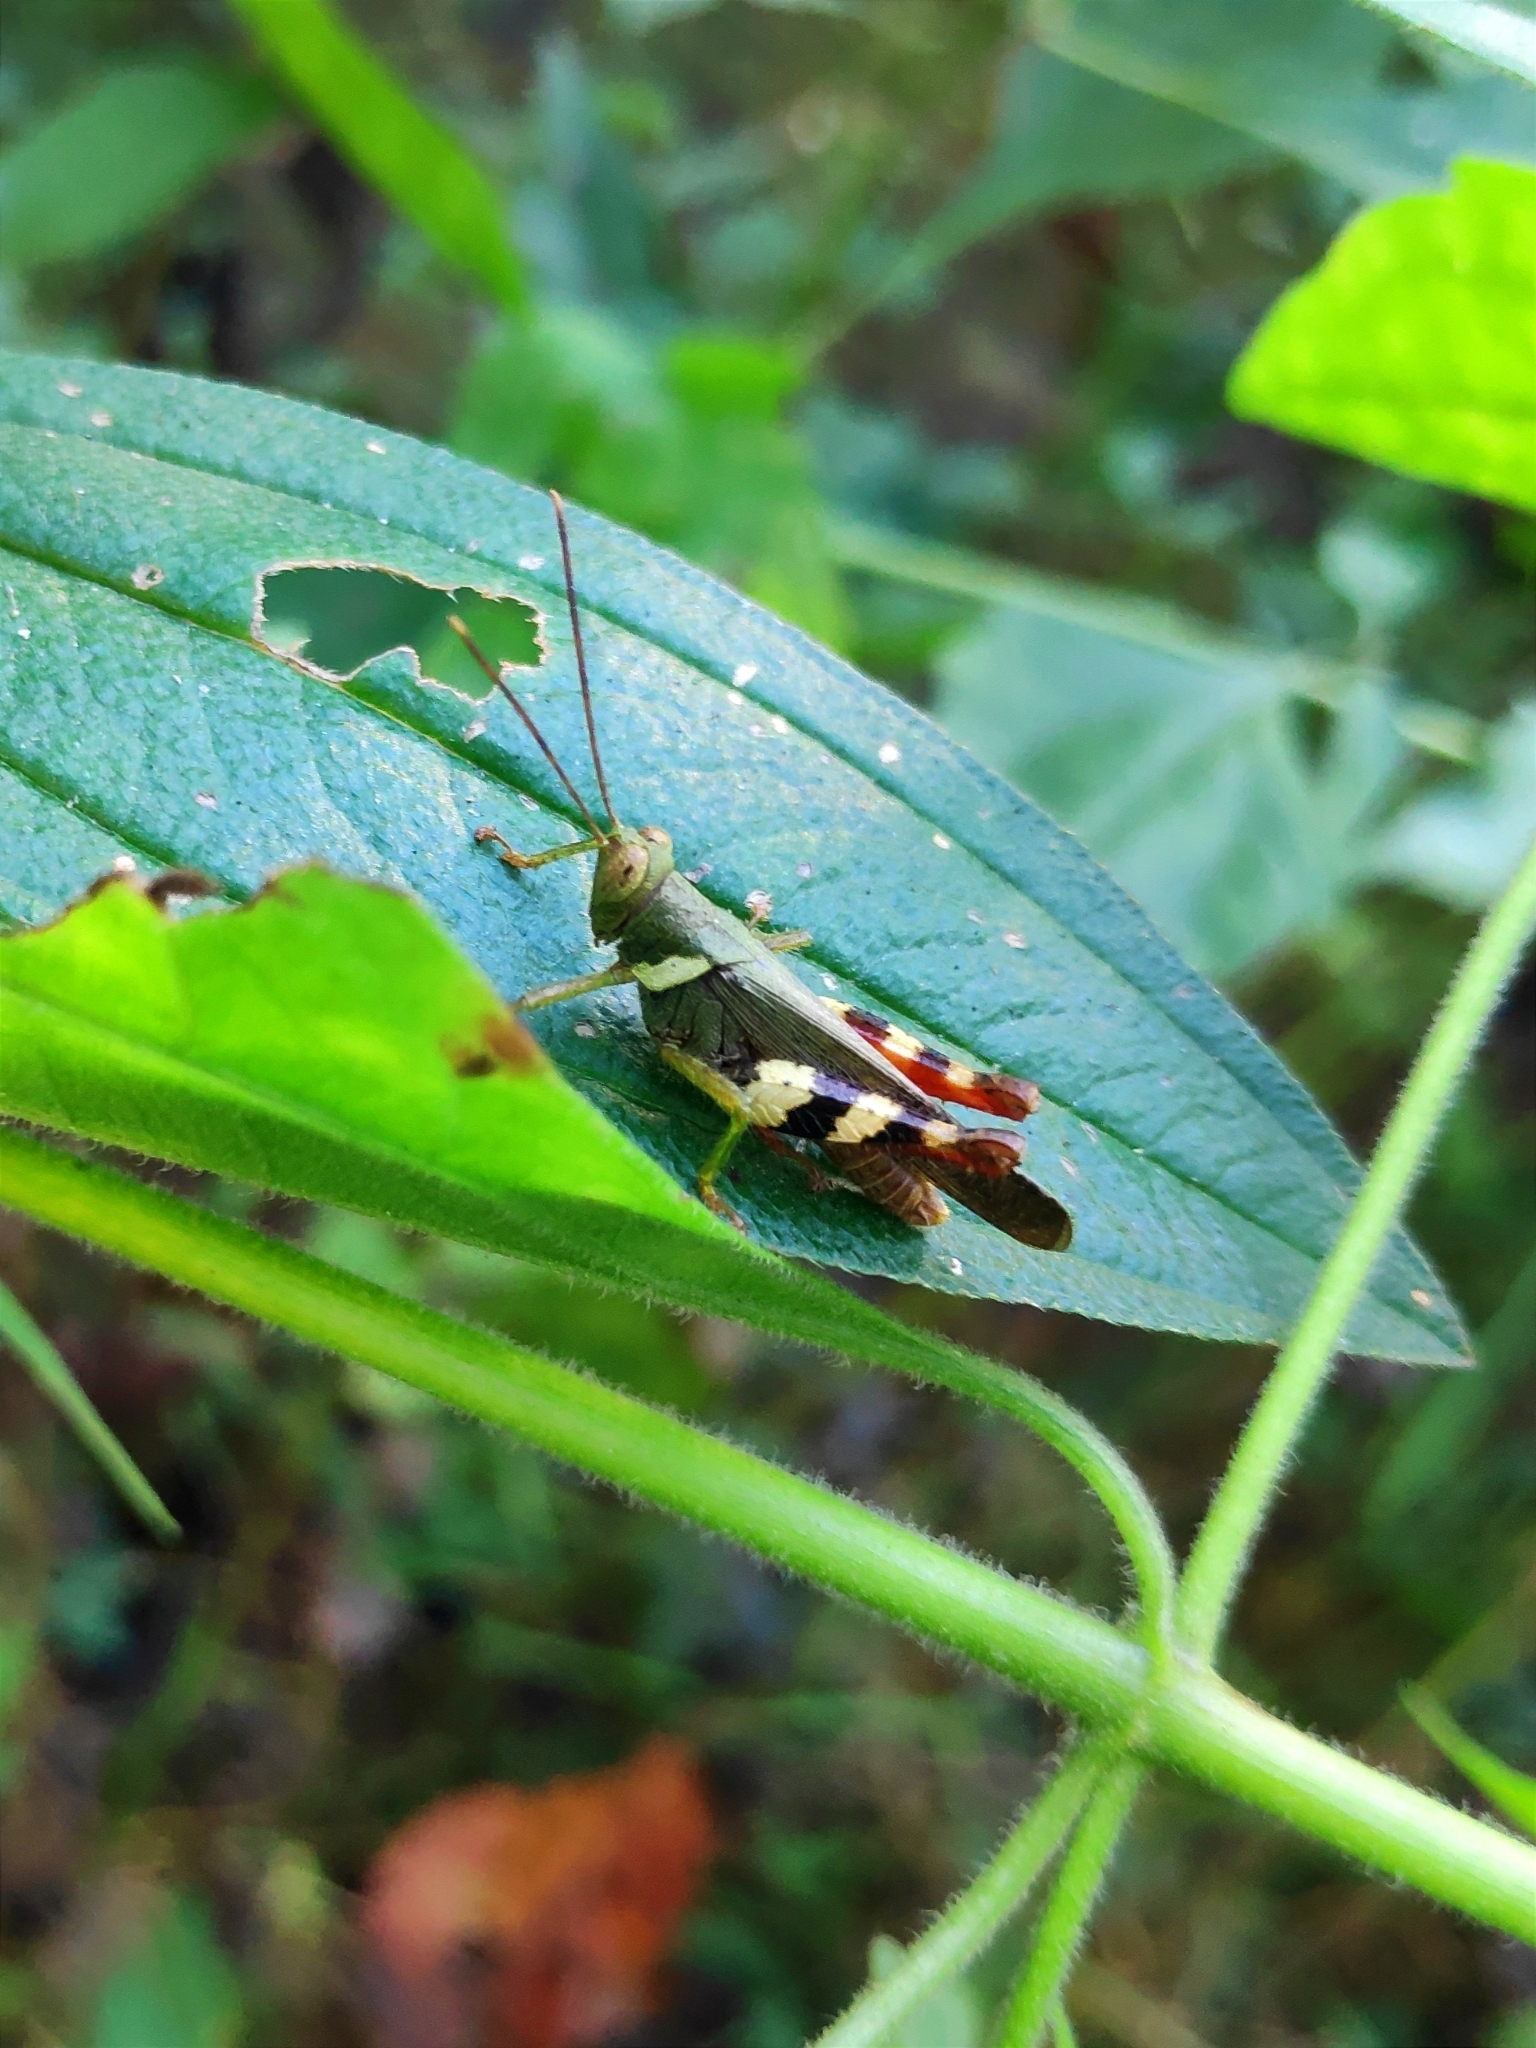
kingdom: Animalia
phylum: Arthropoda
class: Insecta
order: Orthoptera
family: Acrididae
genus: Apalacris
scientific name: Apalacris varicornis
